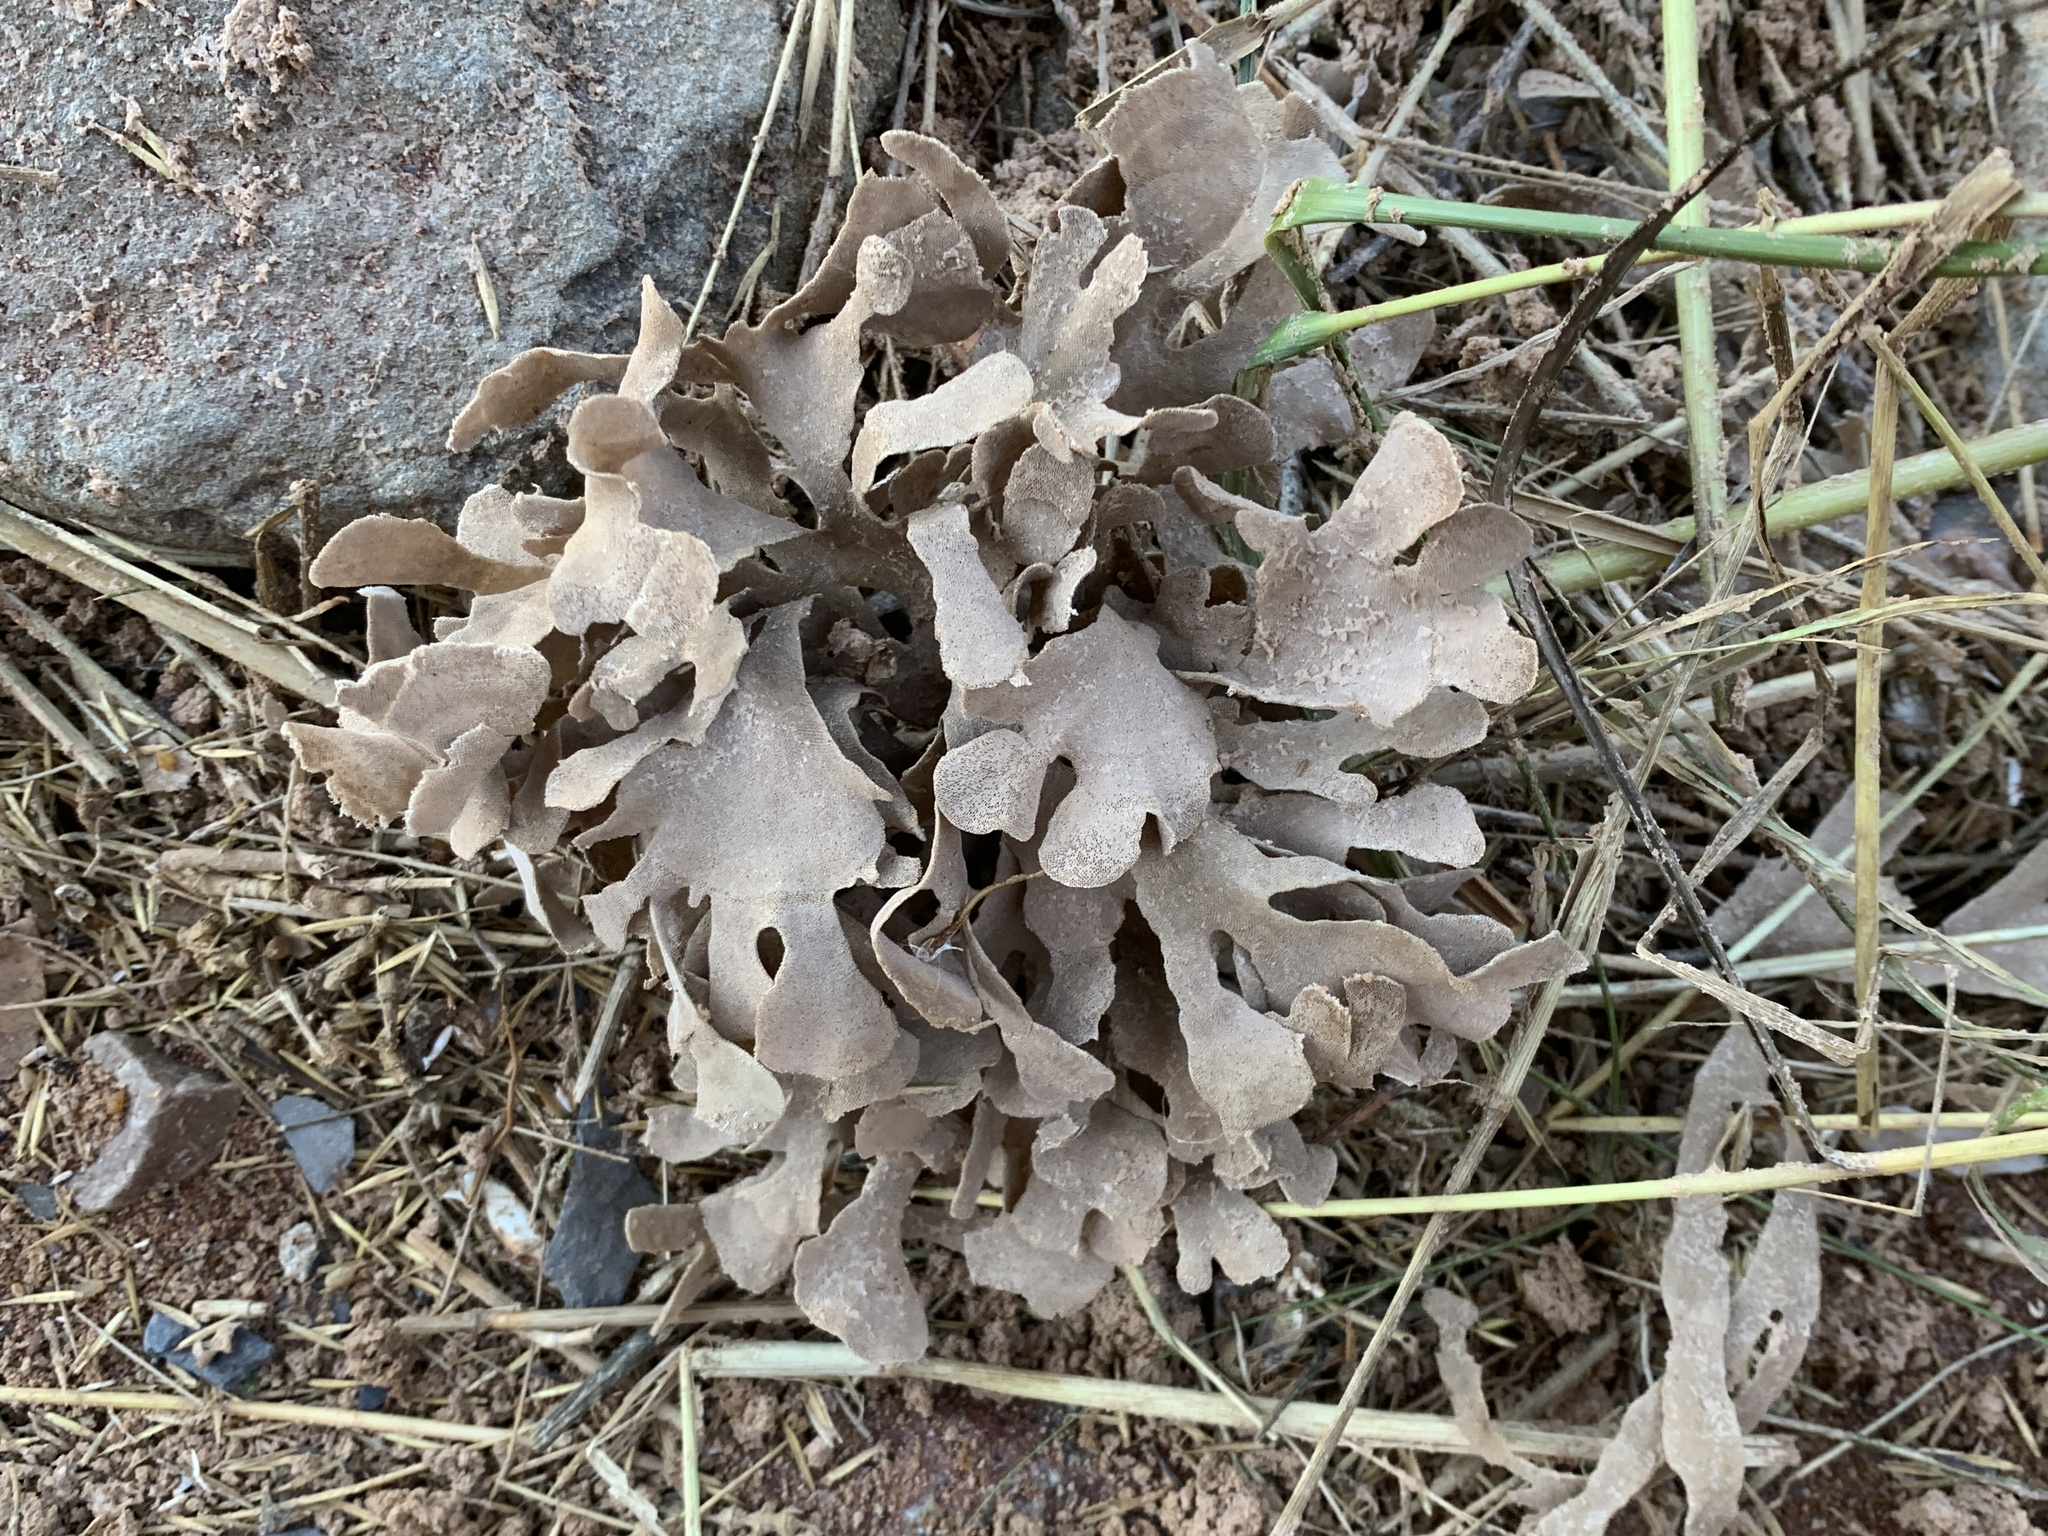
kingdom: Animalia
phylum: Bryozoa
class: Gymnolaemata
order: Cheilostomatida
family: Flustridae
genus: Flustra
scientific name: Flustra foliacea
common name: Hornwrack
